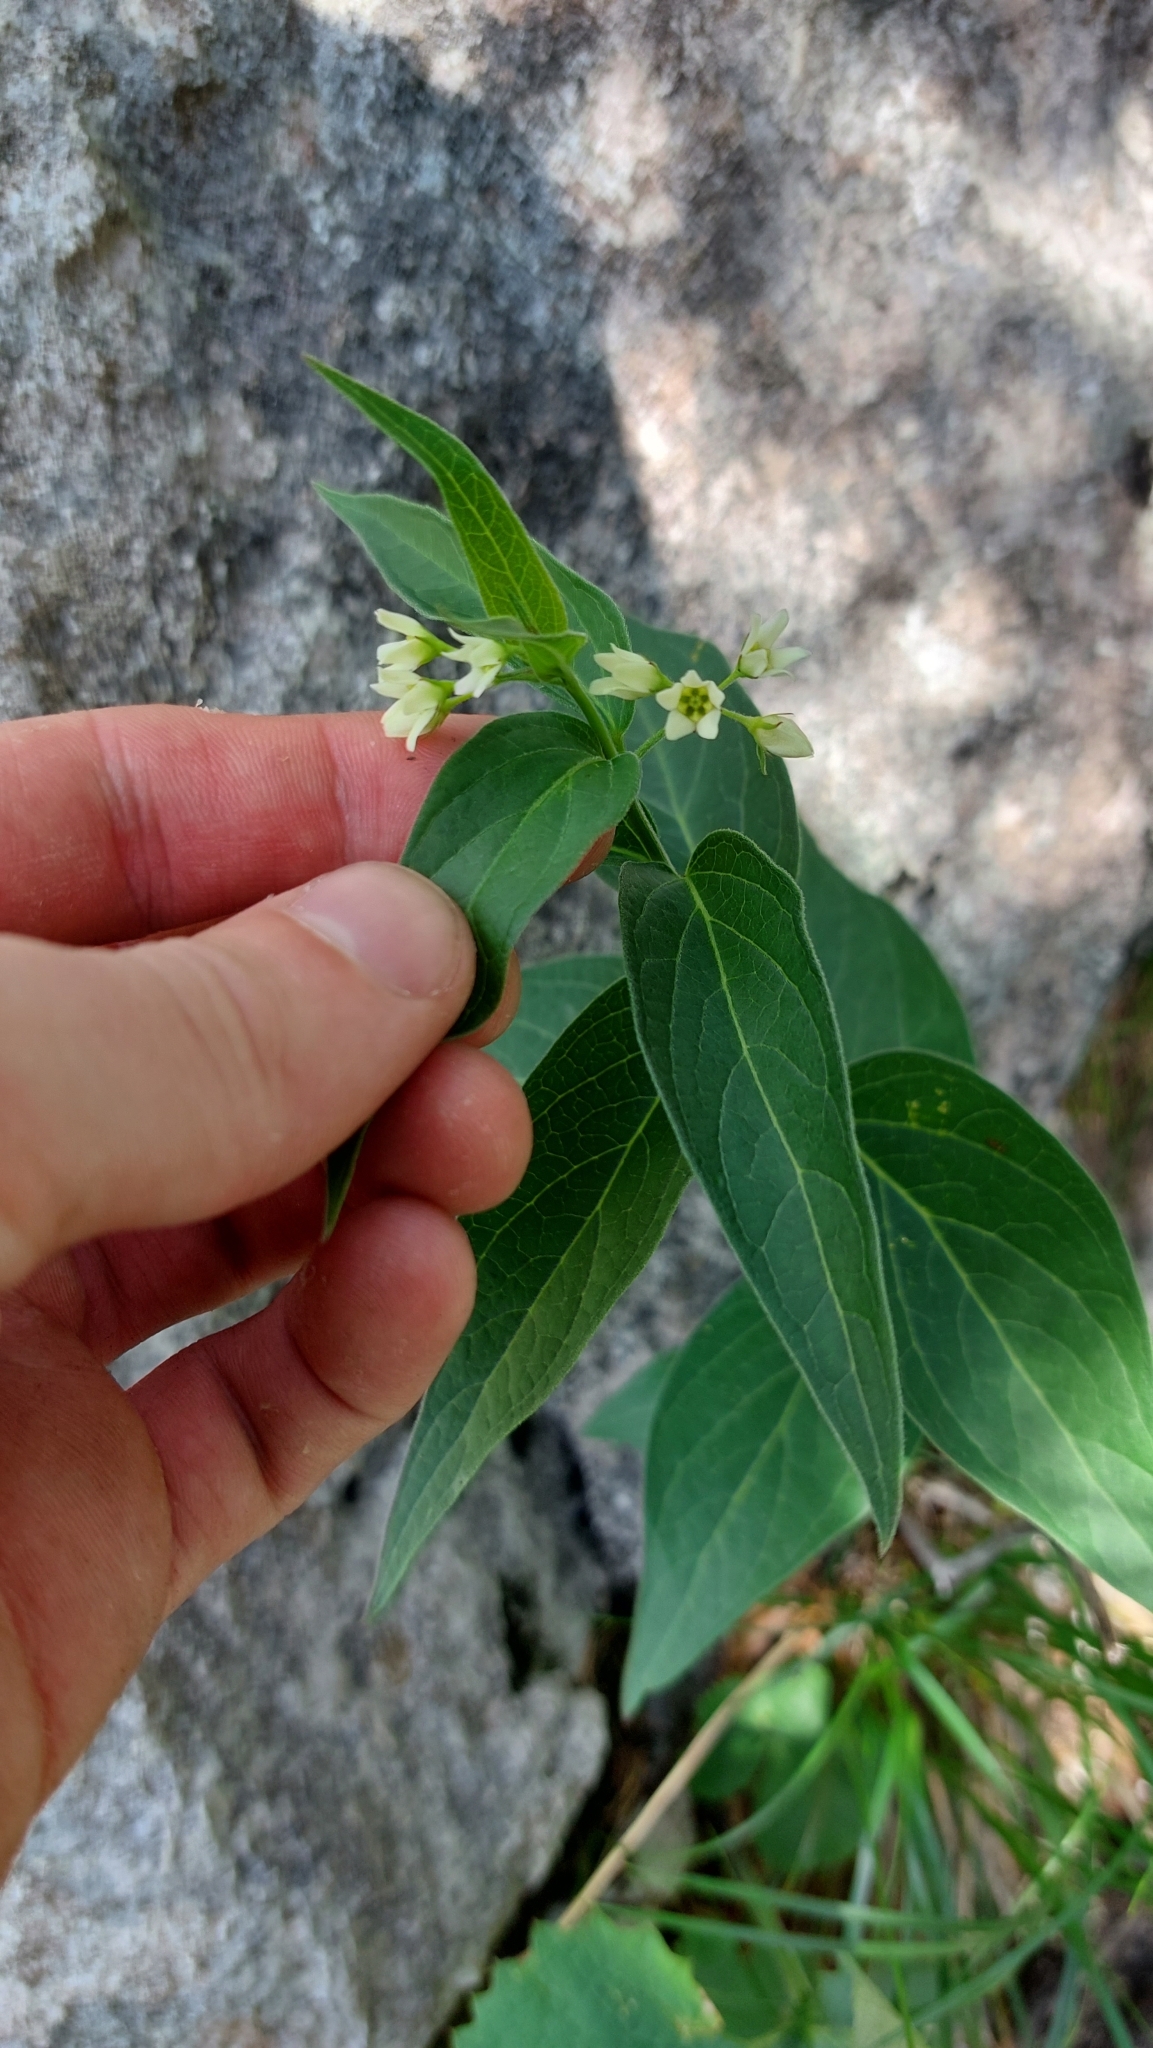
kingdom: Plantae
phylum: Tracheophyta
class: Magnoliopsida
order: Gentianales
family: Apocynaceae
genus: Vincetoxicum
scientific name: Vincetoxicum hirundinaria
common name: White swallowwort
